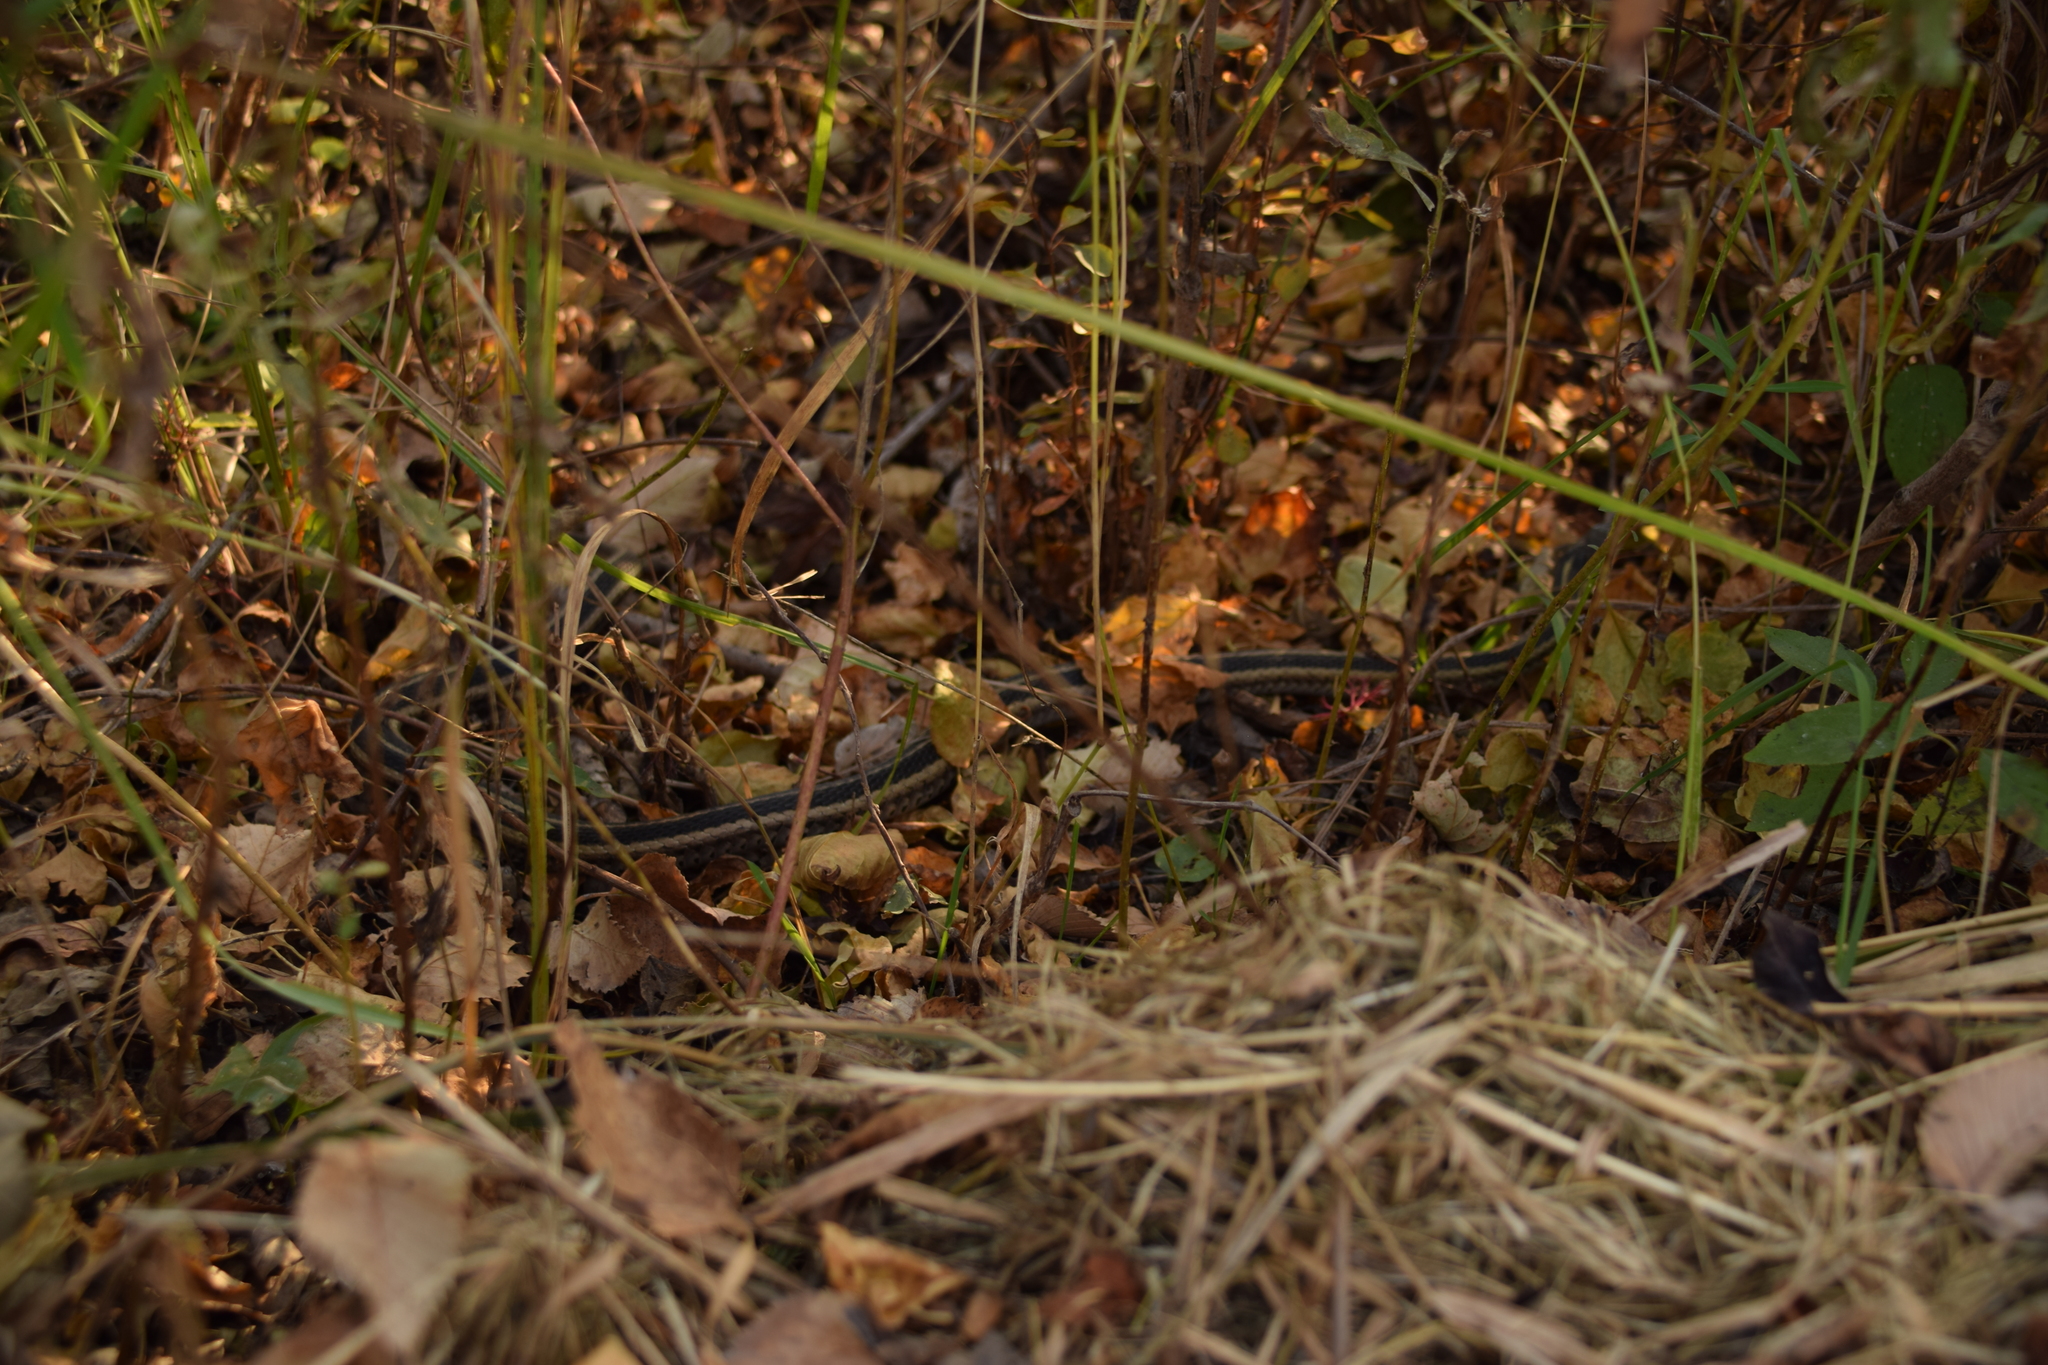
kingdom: Animalia
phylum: Chordata
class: Squamata
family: Colubridae
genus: Thamnophis
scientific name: Thamnophis sirtalis
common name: Common garter snake
